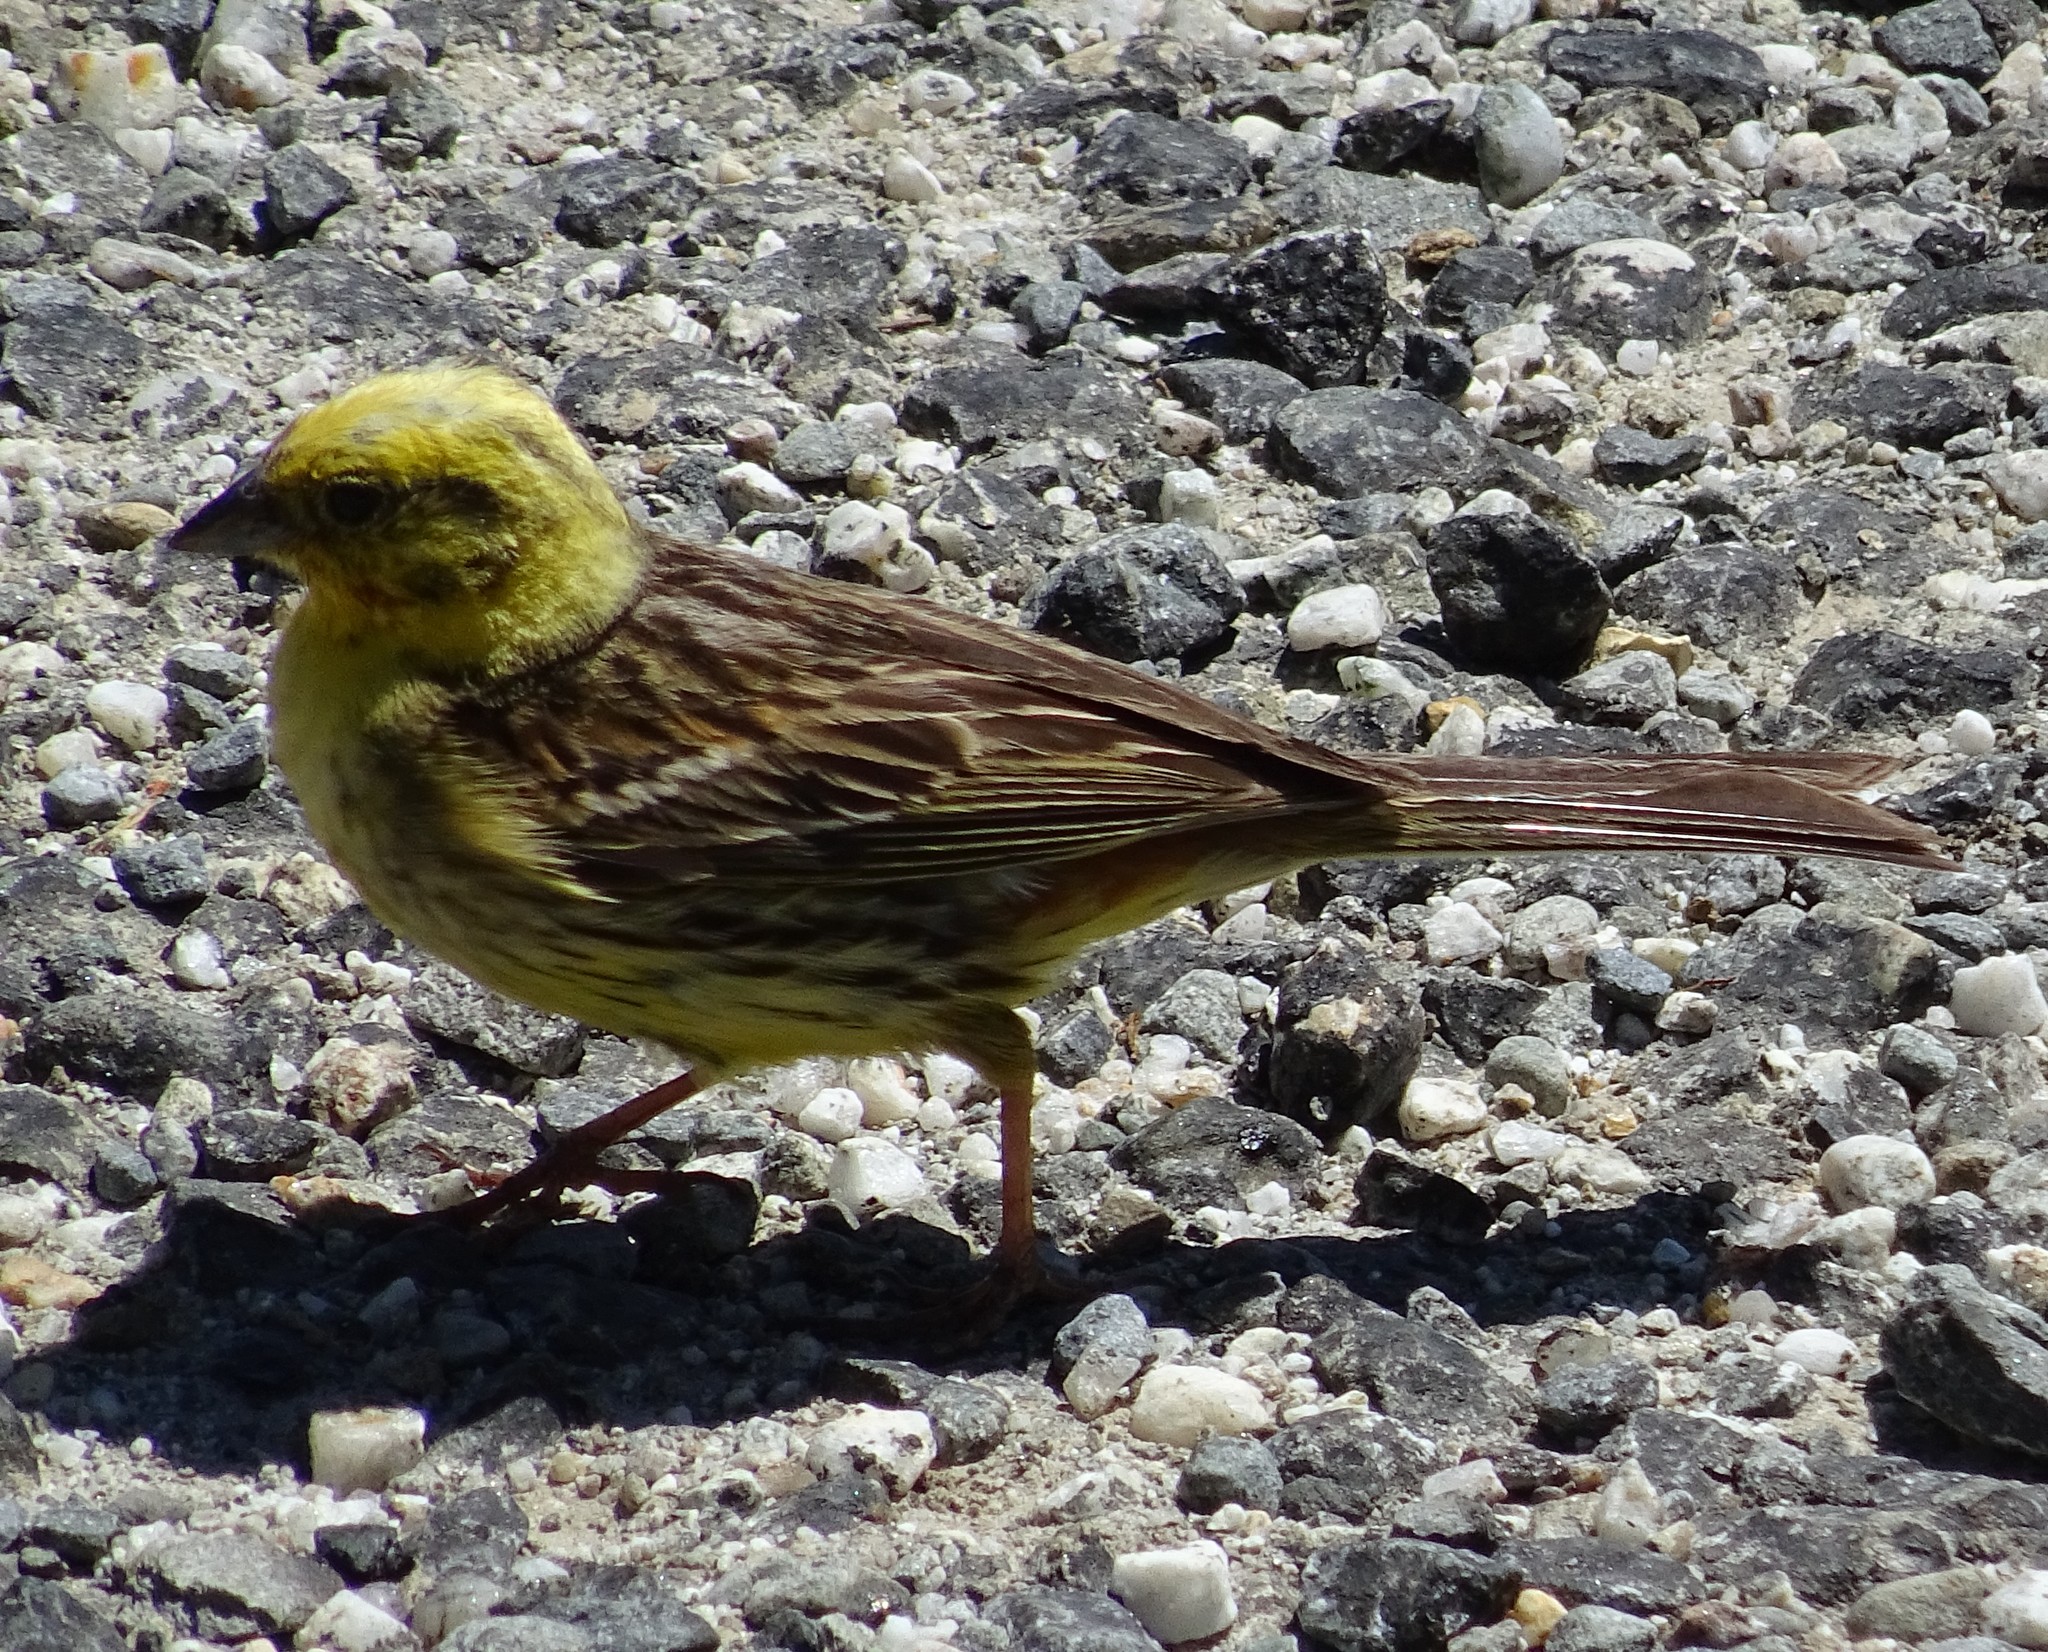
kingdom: Animalia
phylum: Chordata
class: Aves
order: Passeriformes
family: Emberizidae
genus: Emberiza
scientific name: Emberiza citrinella
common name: Yellowhammer
